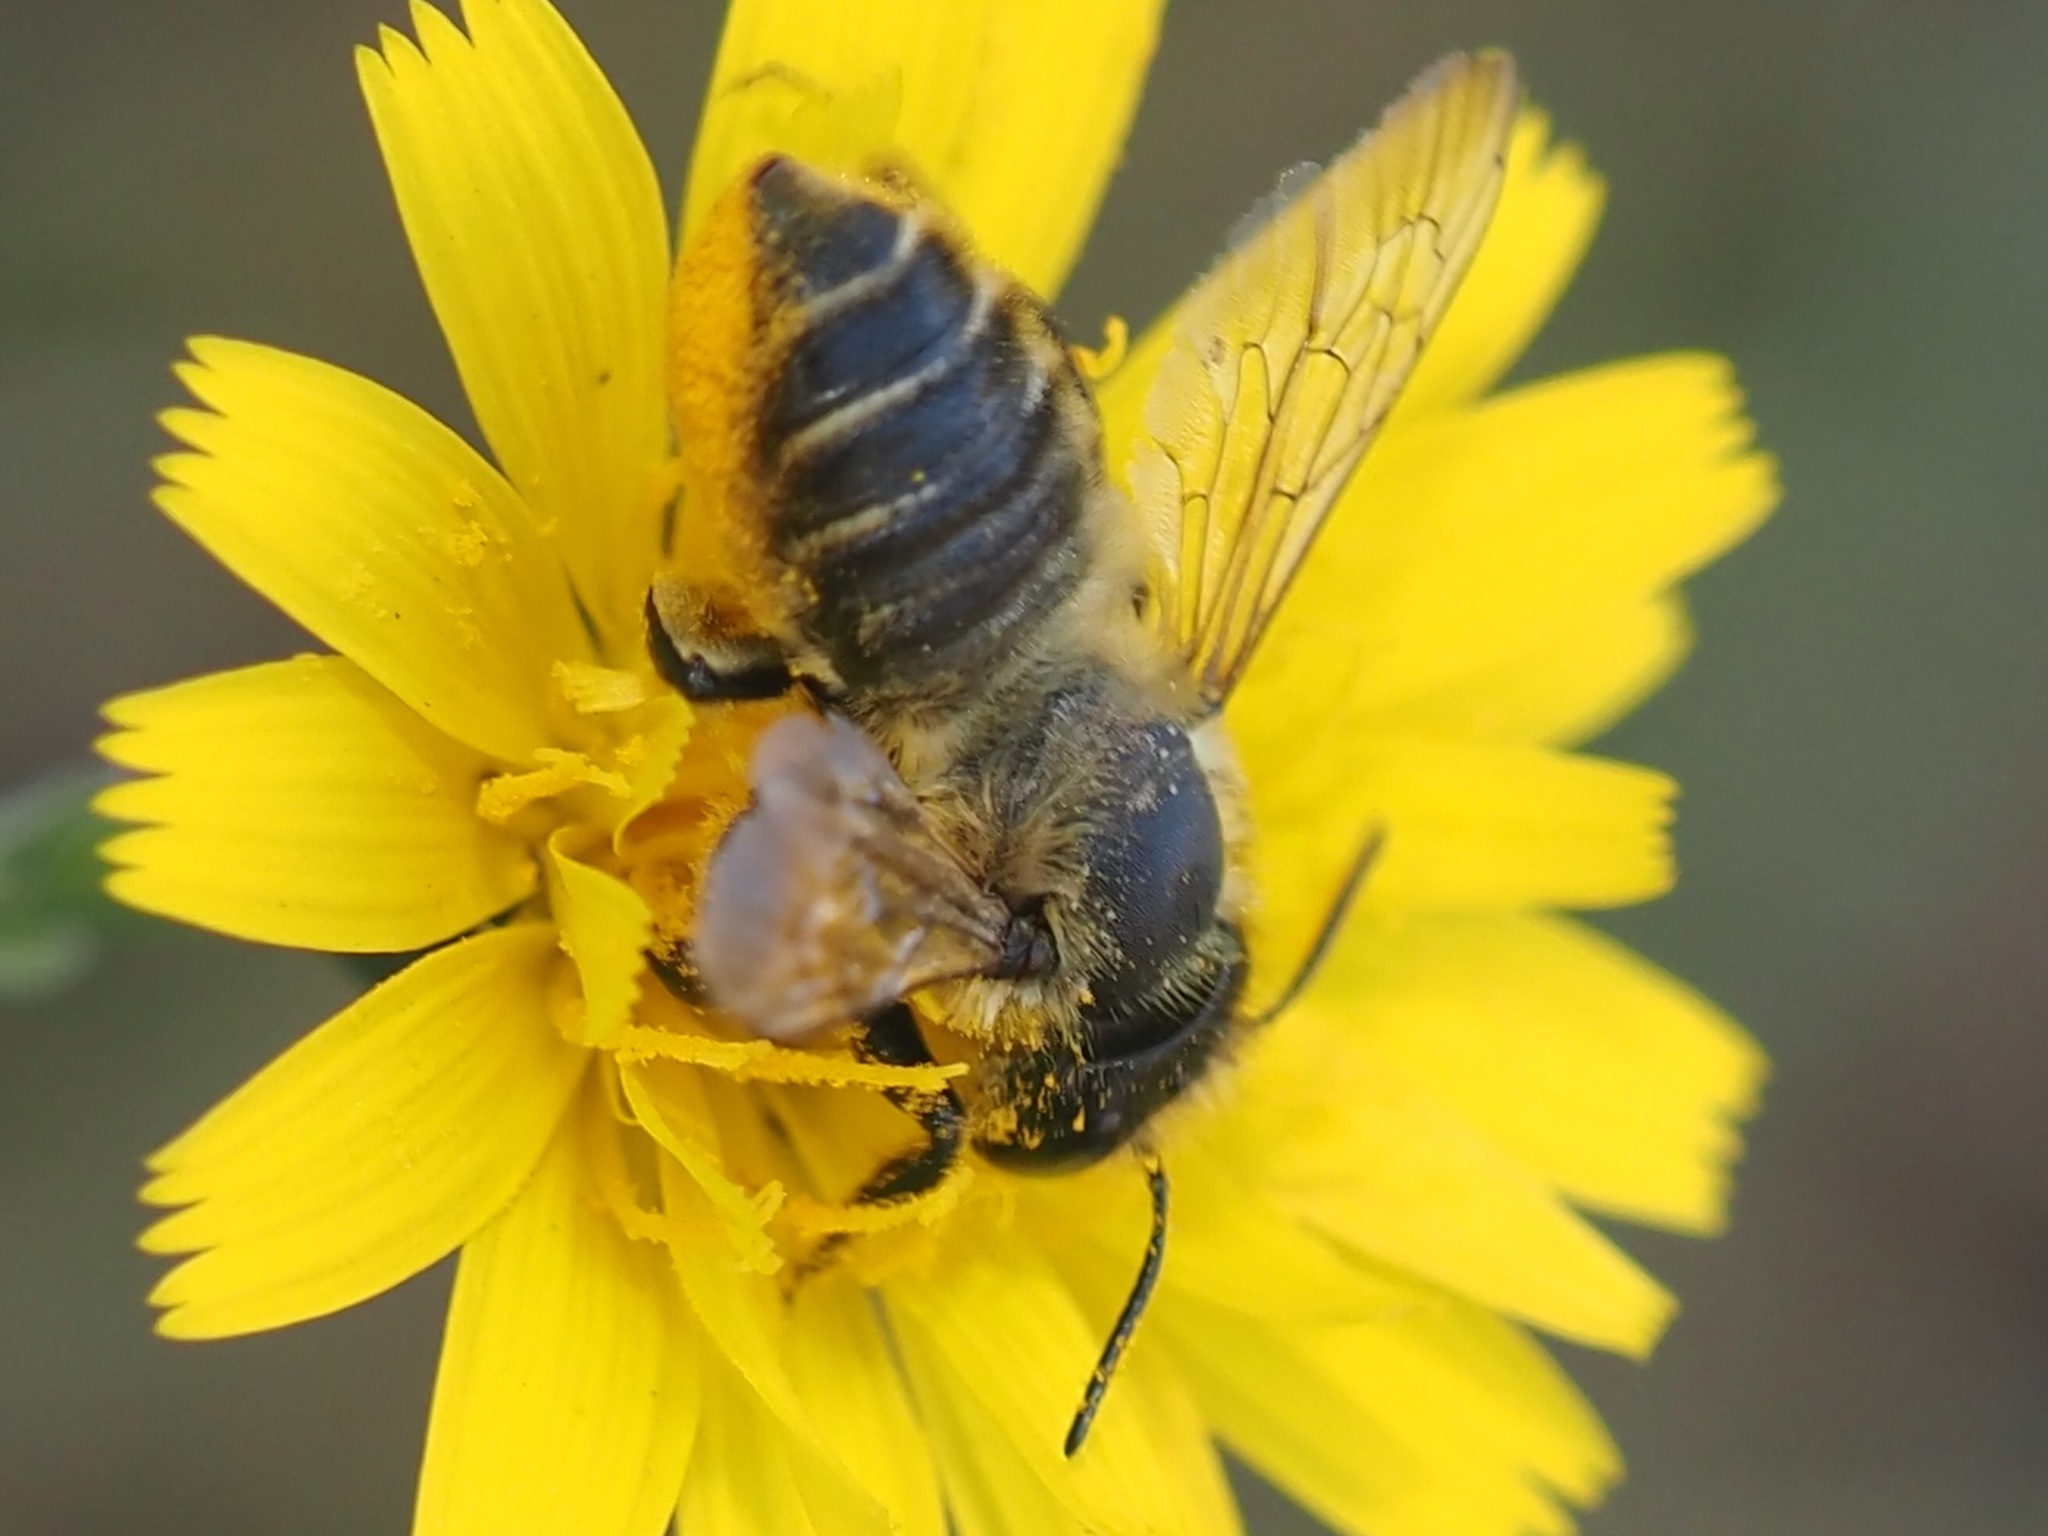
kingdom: Animalia
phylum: Arthropoda
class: Insecta
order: Hymenoptera
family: Megachilidae
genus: Megachile
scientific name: Megachile perihirta
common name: Western leafcutter
